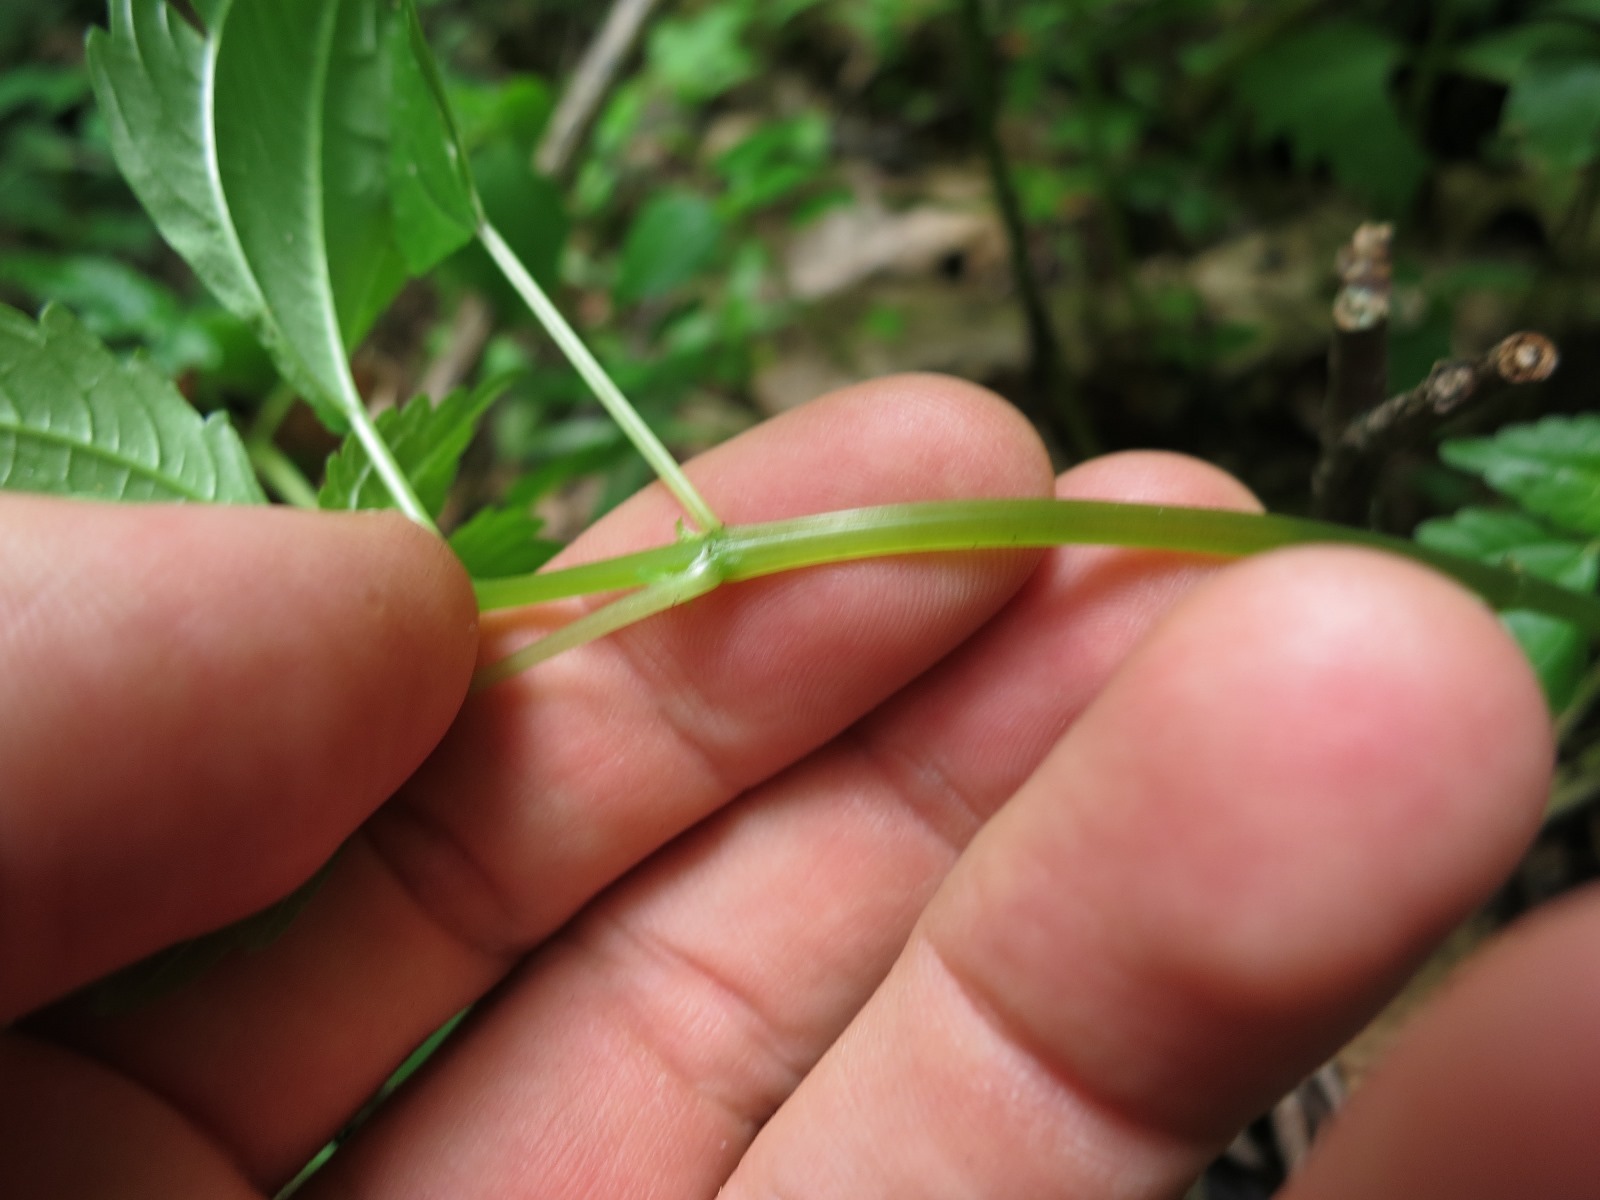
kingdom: Plantae
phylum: Tracheophyta
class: Magnoliopsida
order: Rosales
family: Urticaceae
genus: Pilea
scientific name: Pilea pumila
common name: Clearweed
